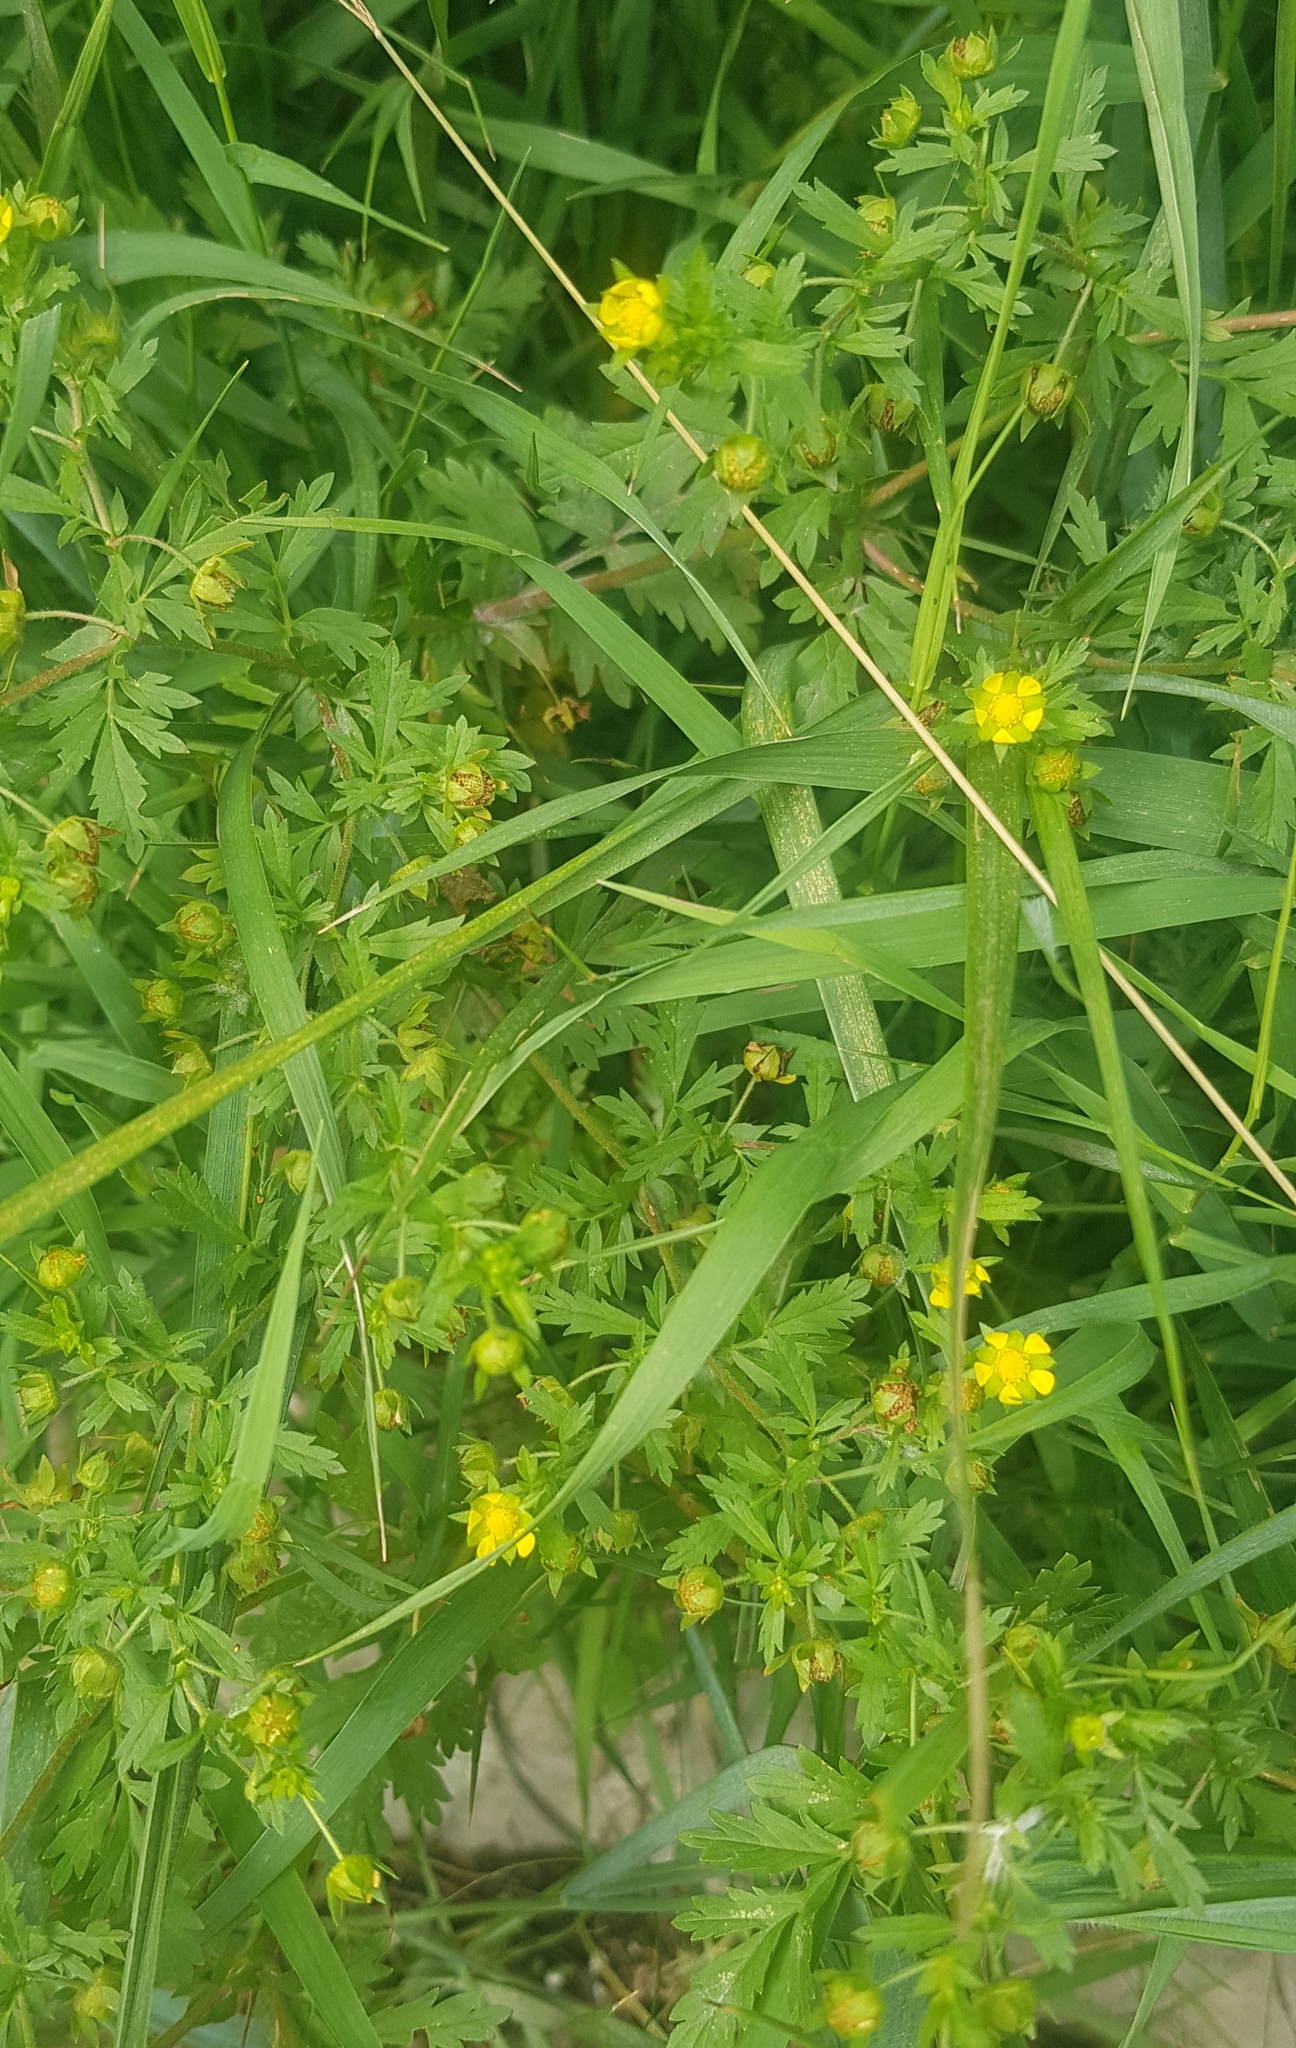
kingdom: Plantae
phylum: Tracheophyta
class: Magnoliopsida
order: Rosales
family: Rosaceae
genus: Potentilla
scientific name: Potentilla supina
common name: Prostrate cinquefoil
